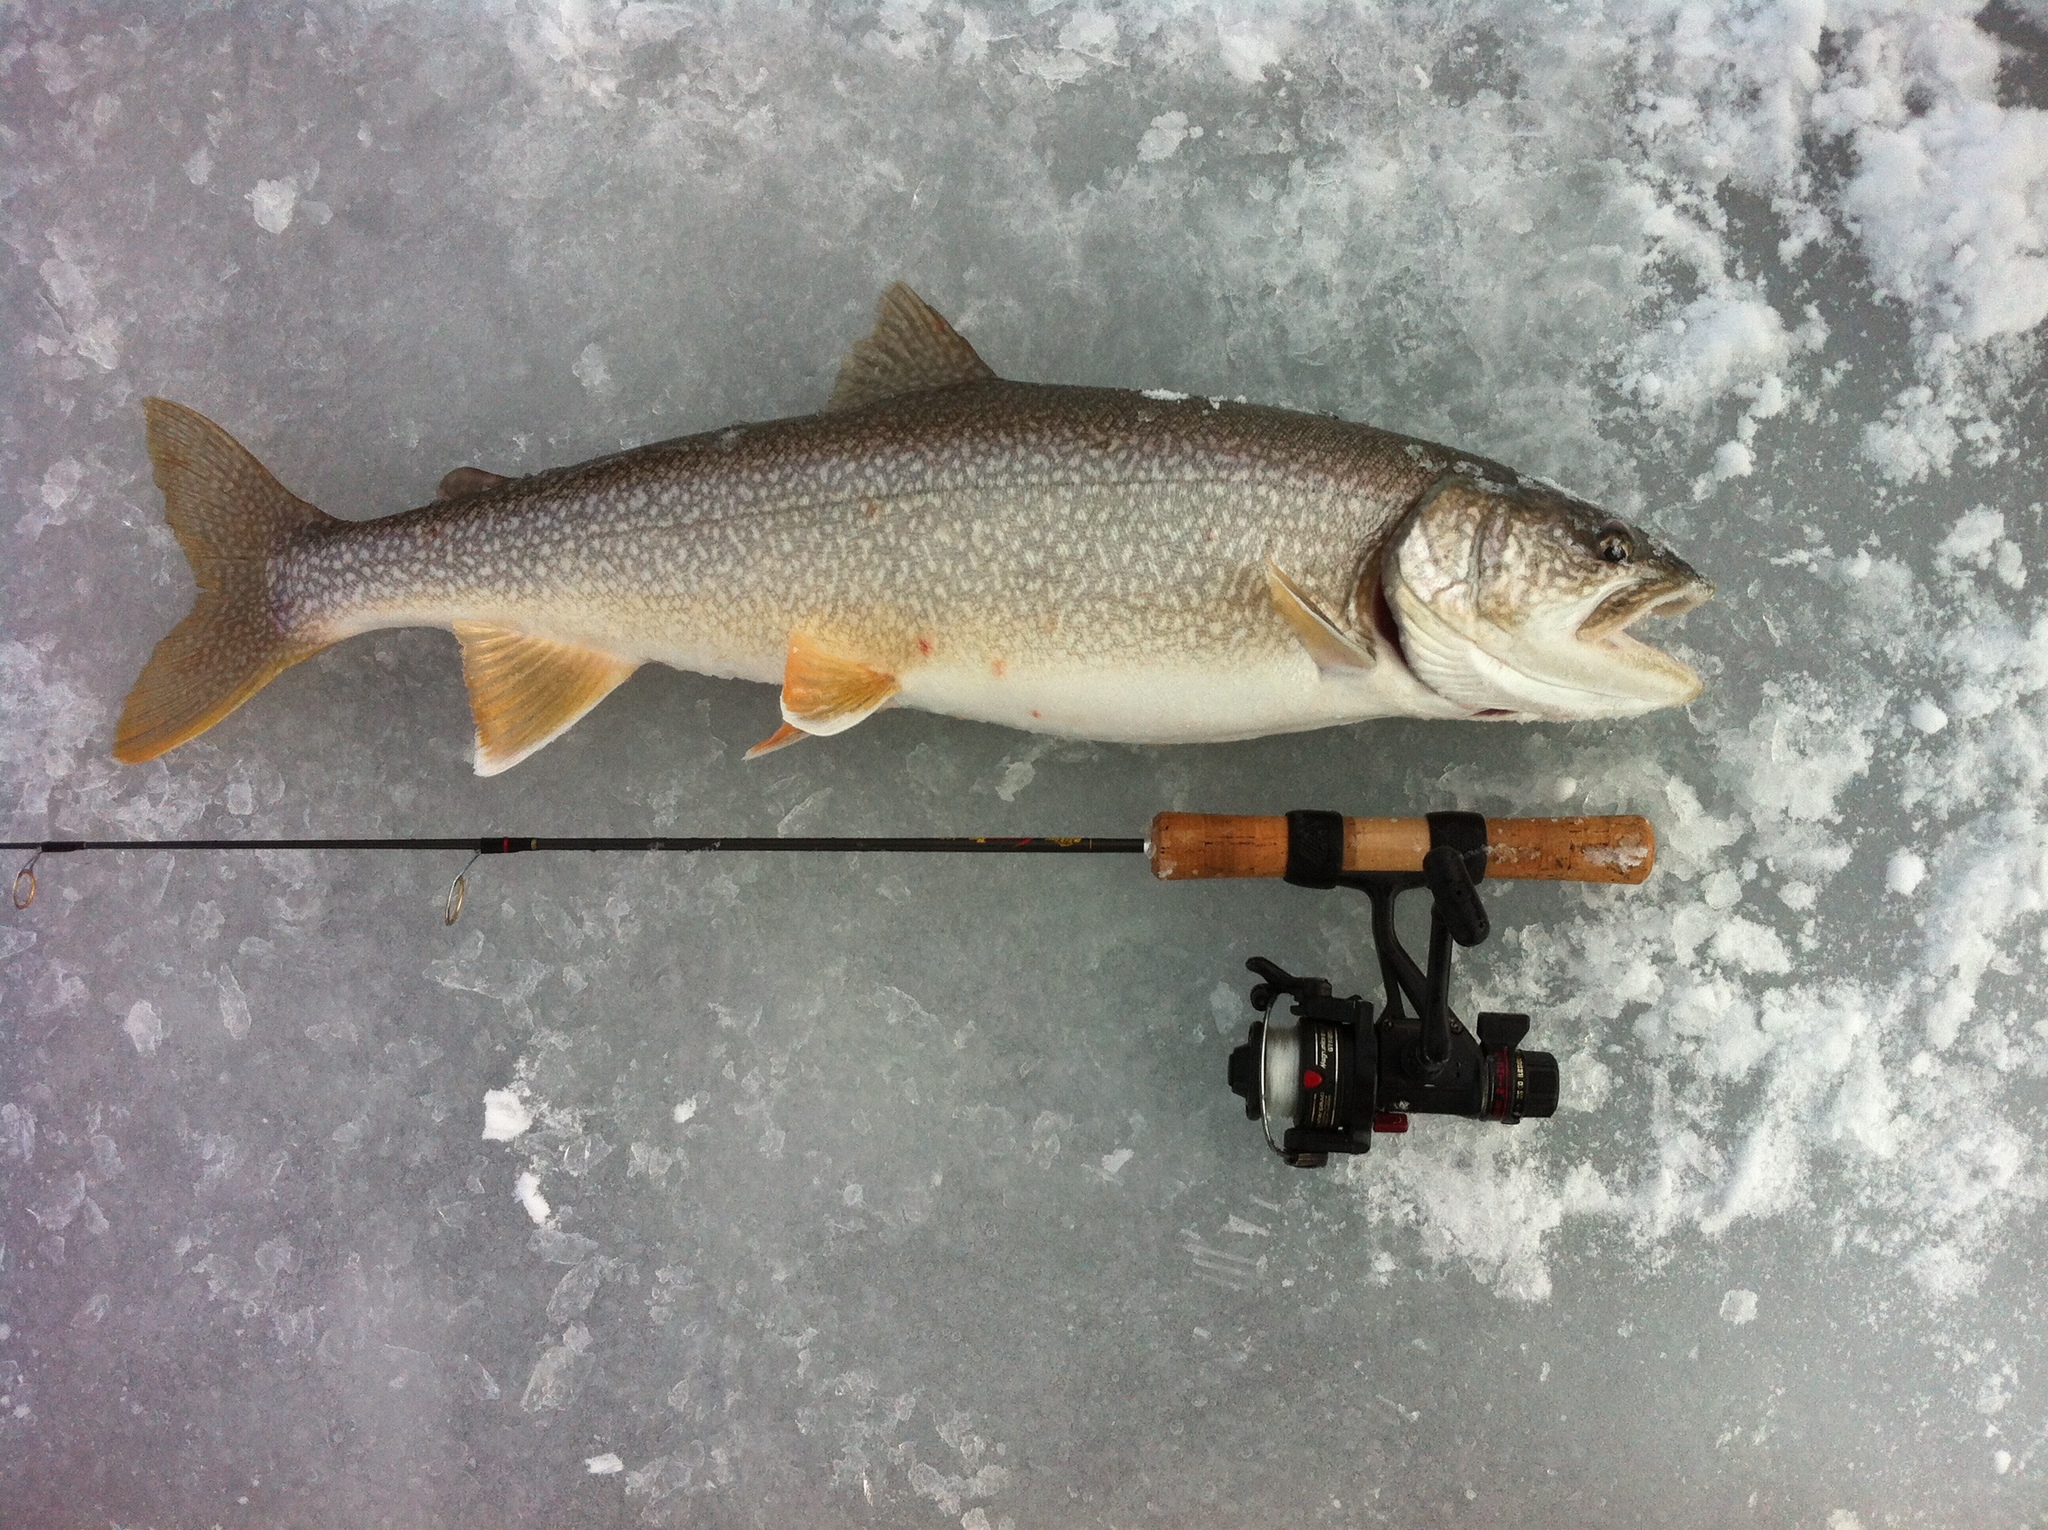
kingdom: Animalia
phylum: Chordata
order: Salmoniformes
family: Salmonidae
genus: Salvelinus
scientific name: Salvelinus namaycush
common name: American lake charr
